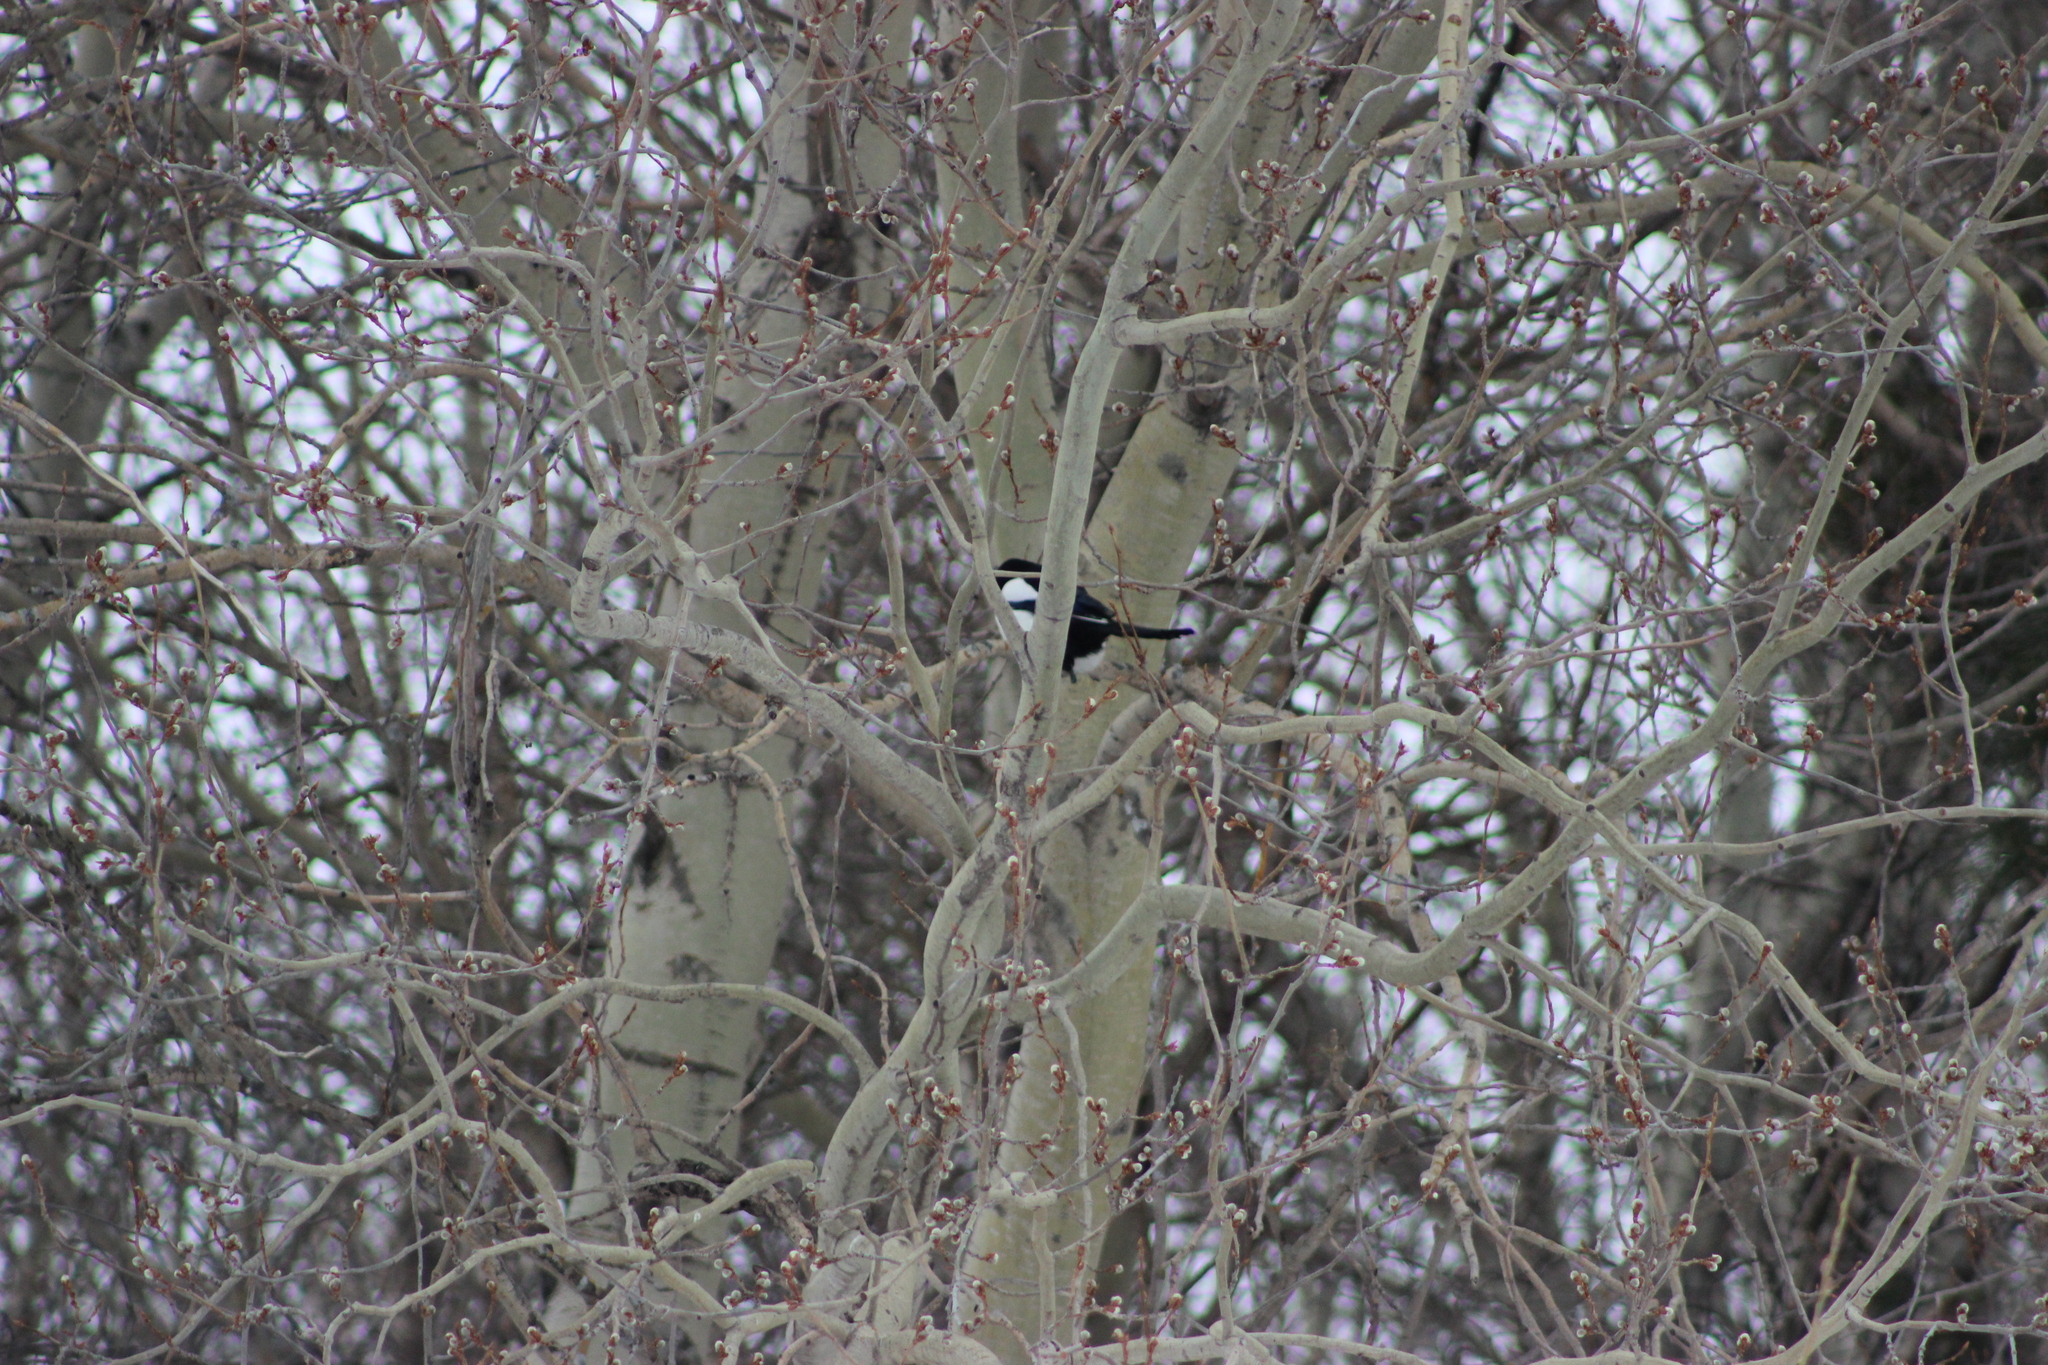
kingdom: Animalia
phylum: Chordata
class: Aves
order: Passeriformes
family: Corvidae
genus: Pica
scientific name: Pica pica
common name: Eurasian magpie
